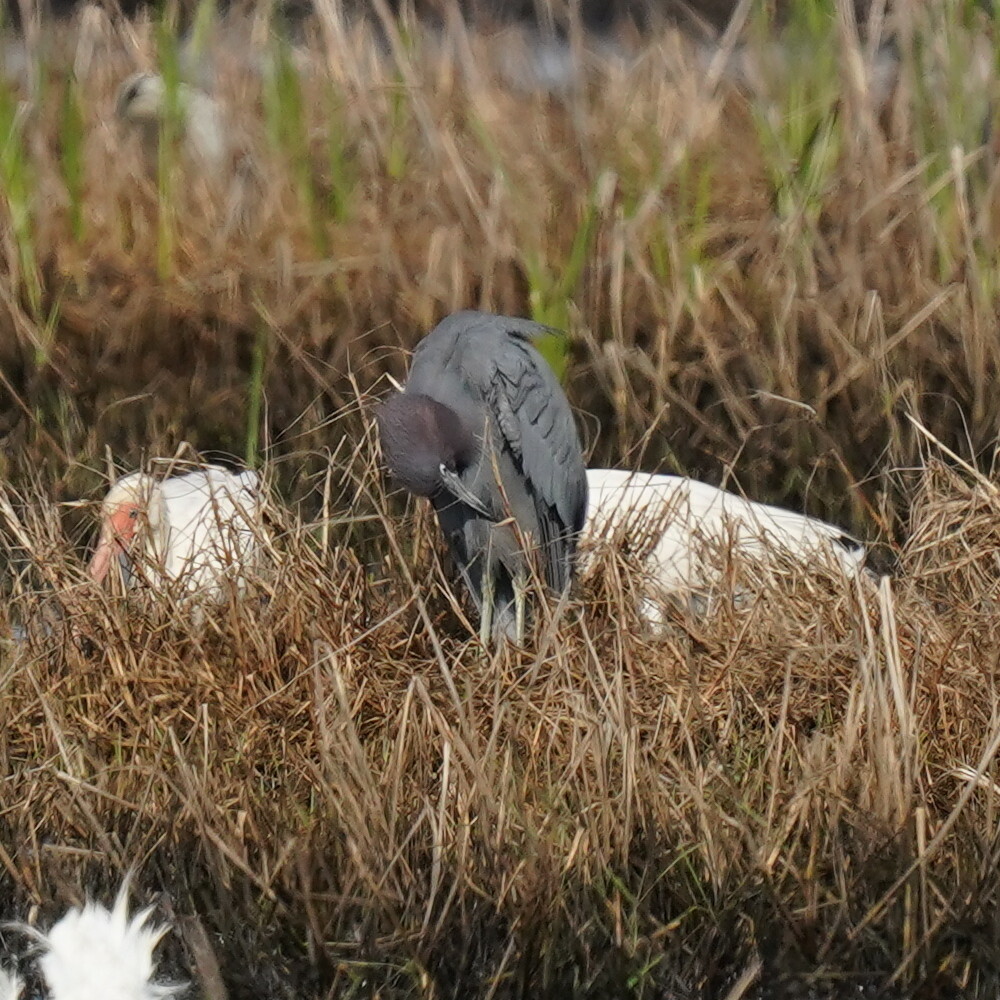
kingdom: Animalia
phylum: Chordata
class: Aves
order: Pelecaniformes
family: Ardeidae
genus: Egretta
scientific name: Egretta caerulea
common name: Little blue heron
